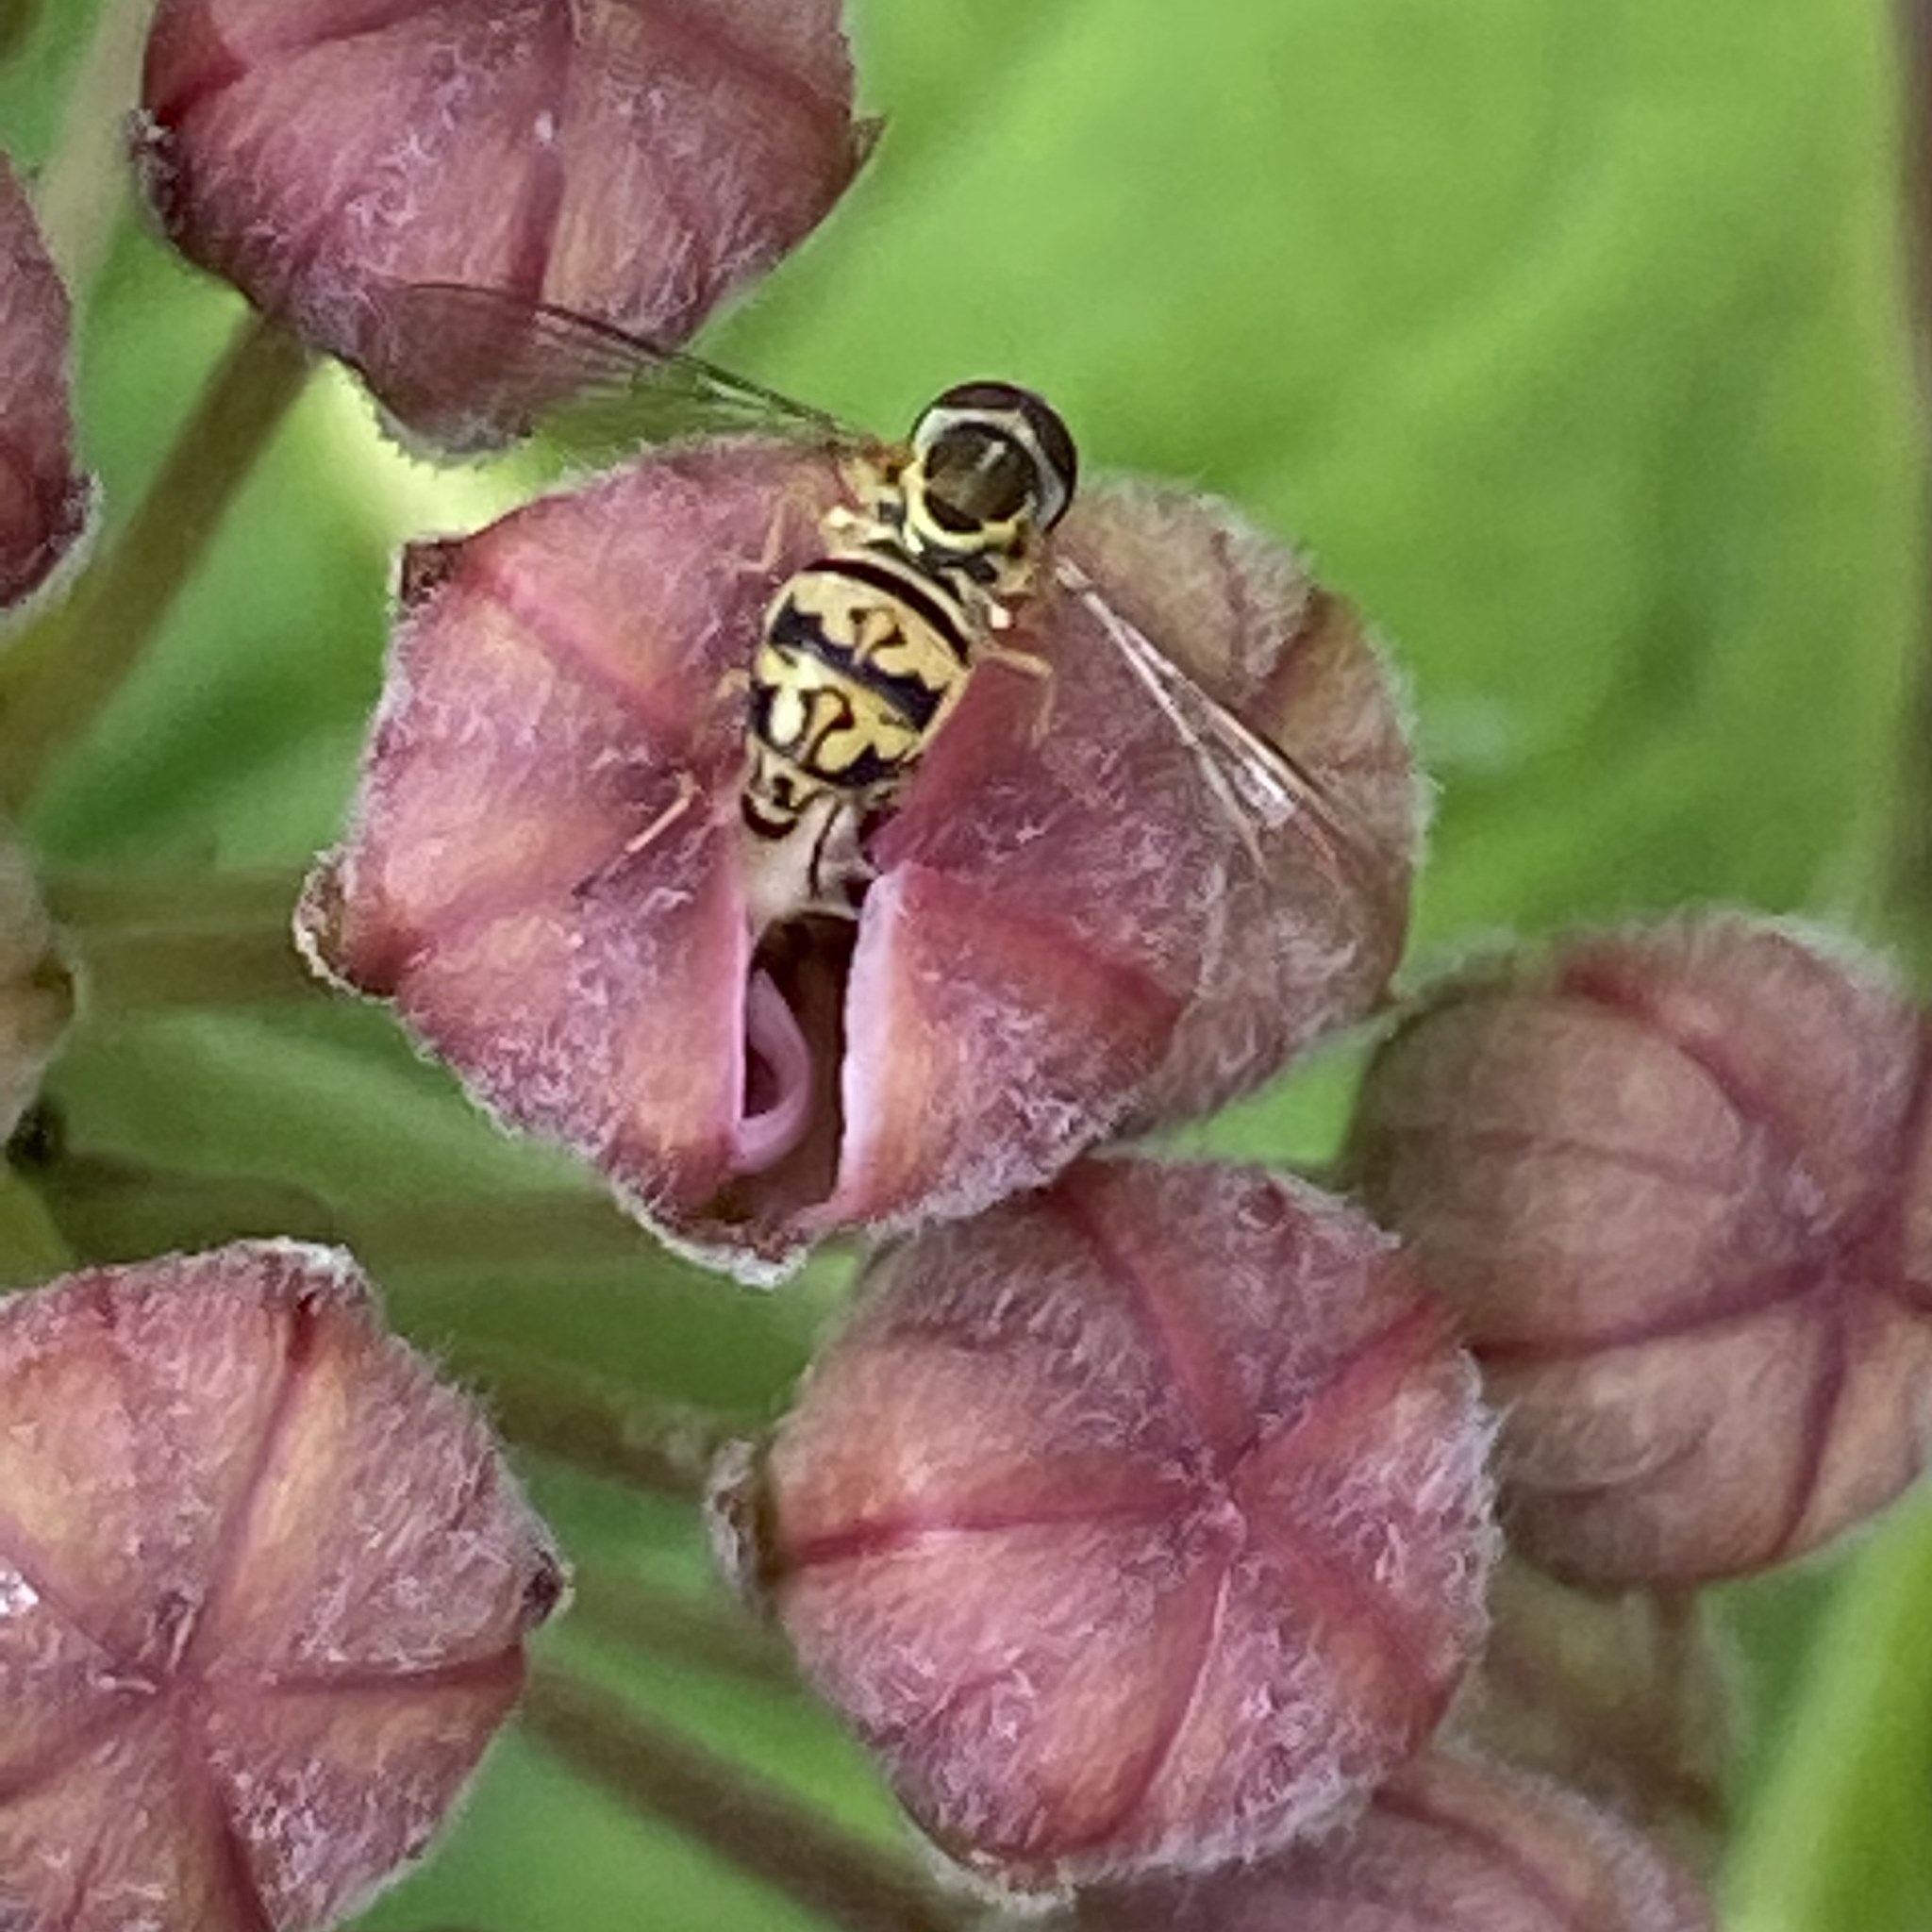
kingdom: Animalia
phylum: Arthropoda
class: Insecta
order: Diptera
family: Syrphidae
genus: Toxomerus
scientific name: Toxomerus geminatus
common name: Eastern calligrapher
